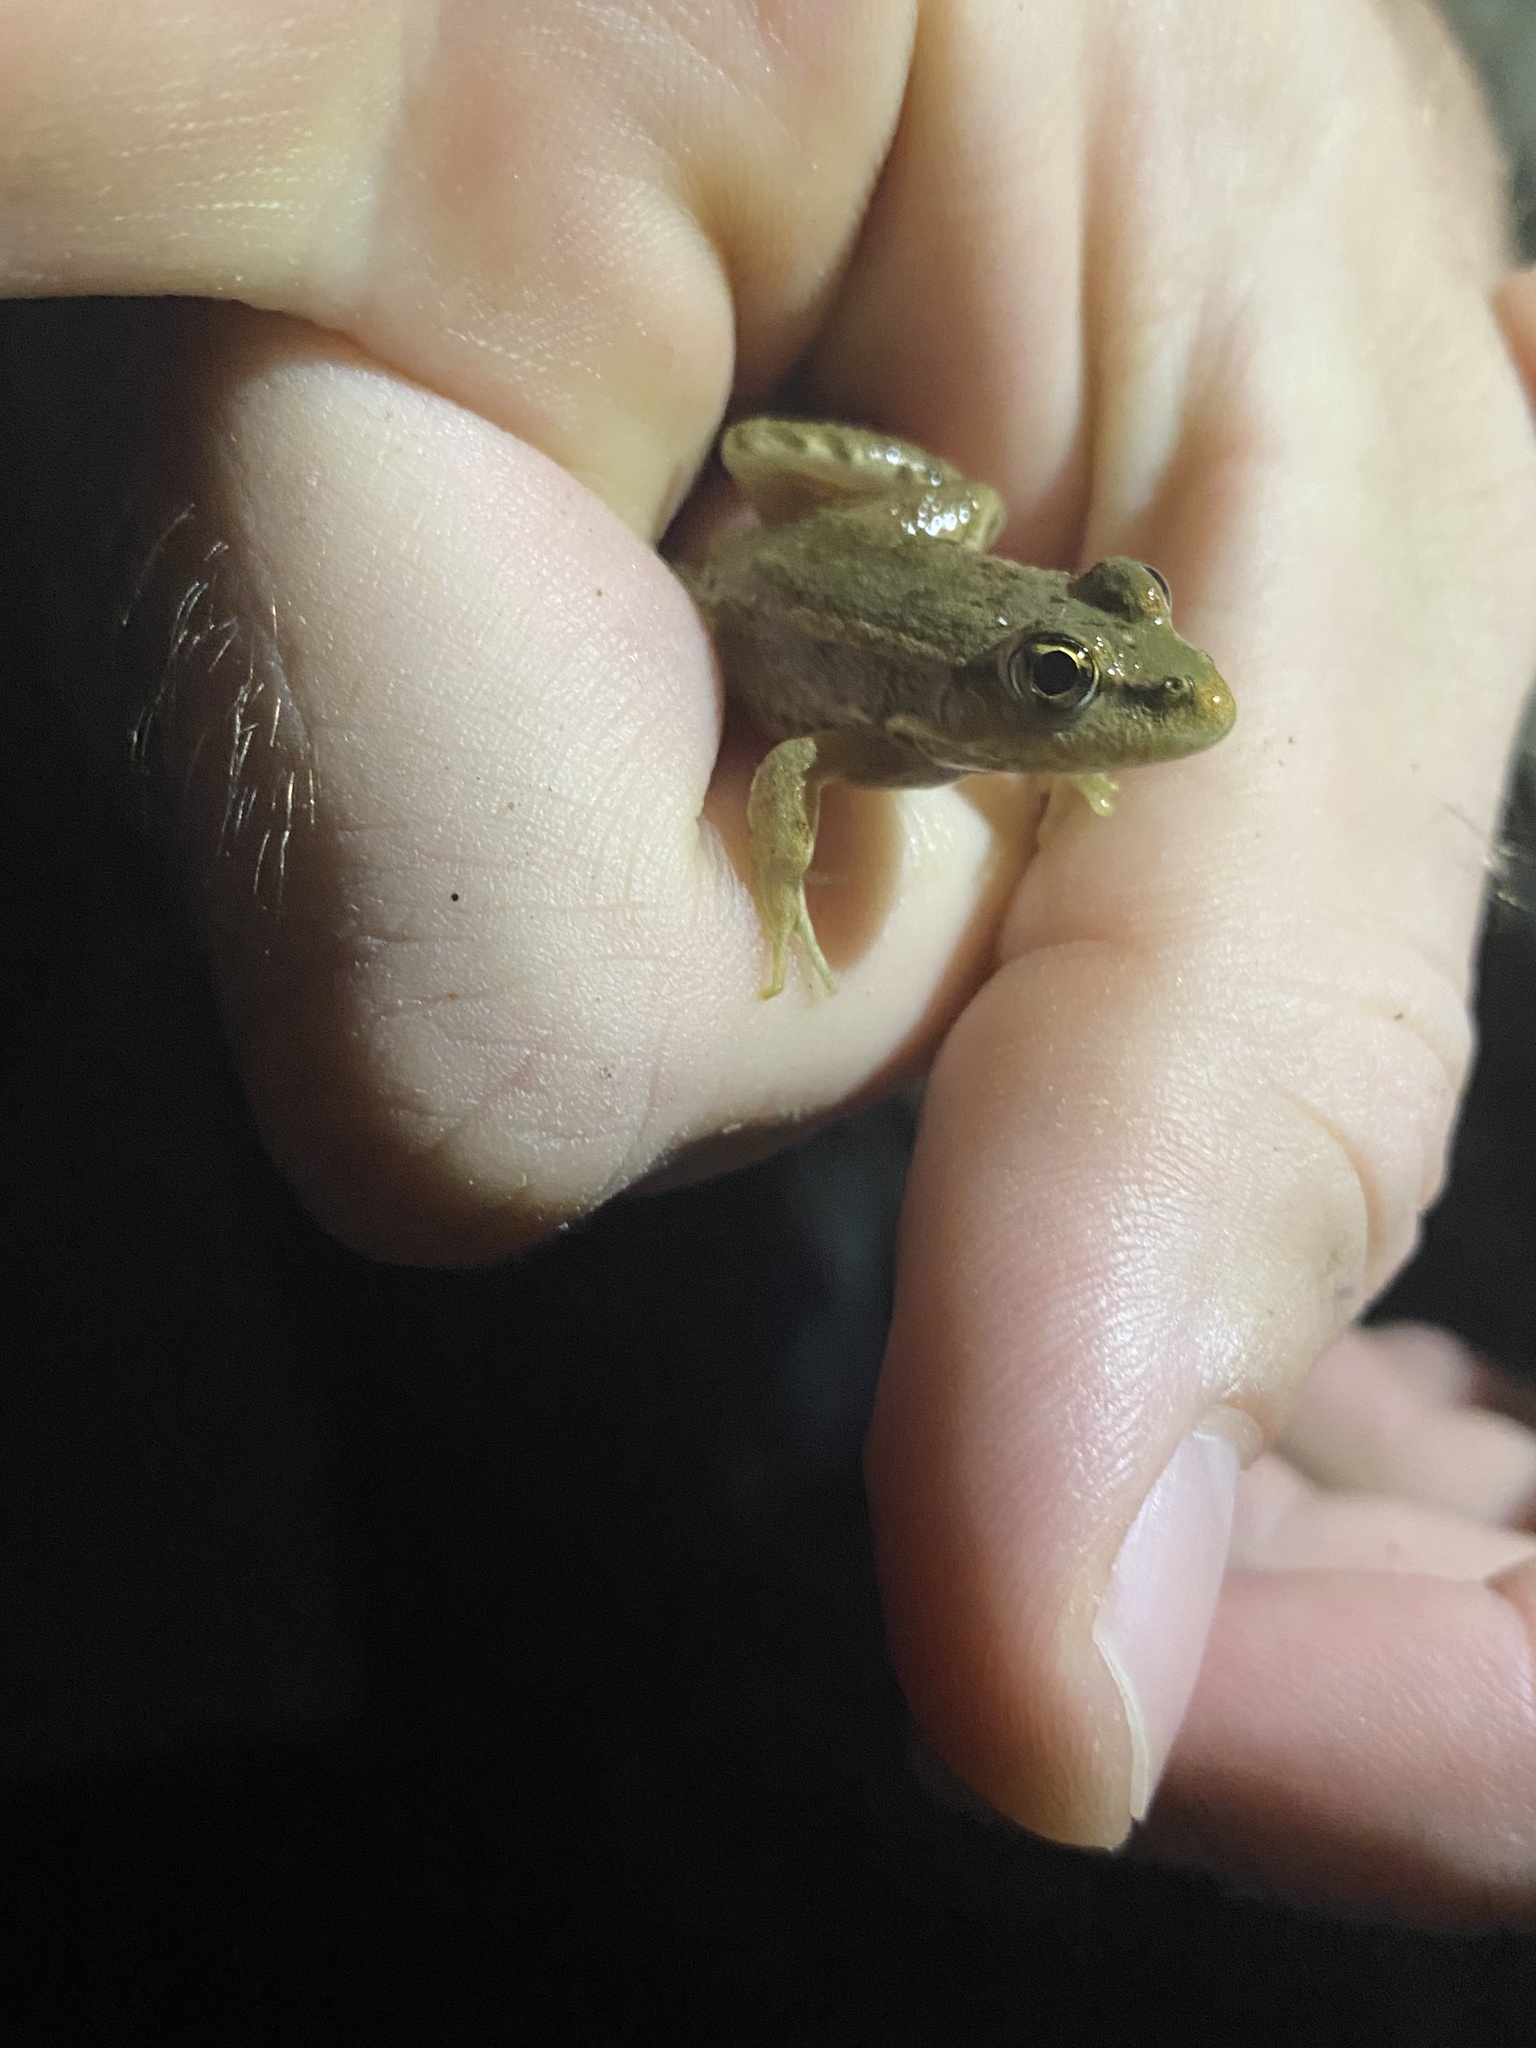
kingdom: Animalia
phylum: Chordata
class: Amphibia
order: Anura
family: Ranidae
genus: Pelophylax
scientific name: Pelophylax ridibundus
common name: Marsh frog
